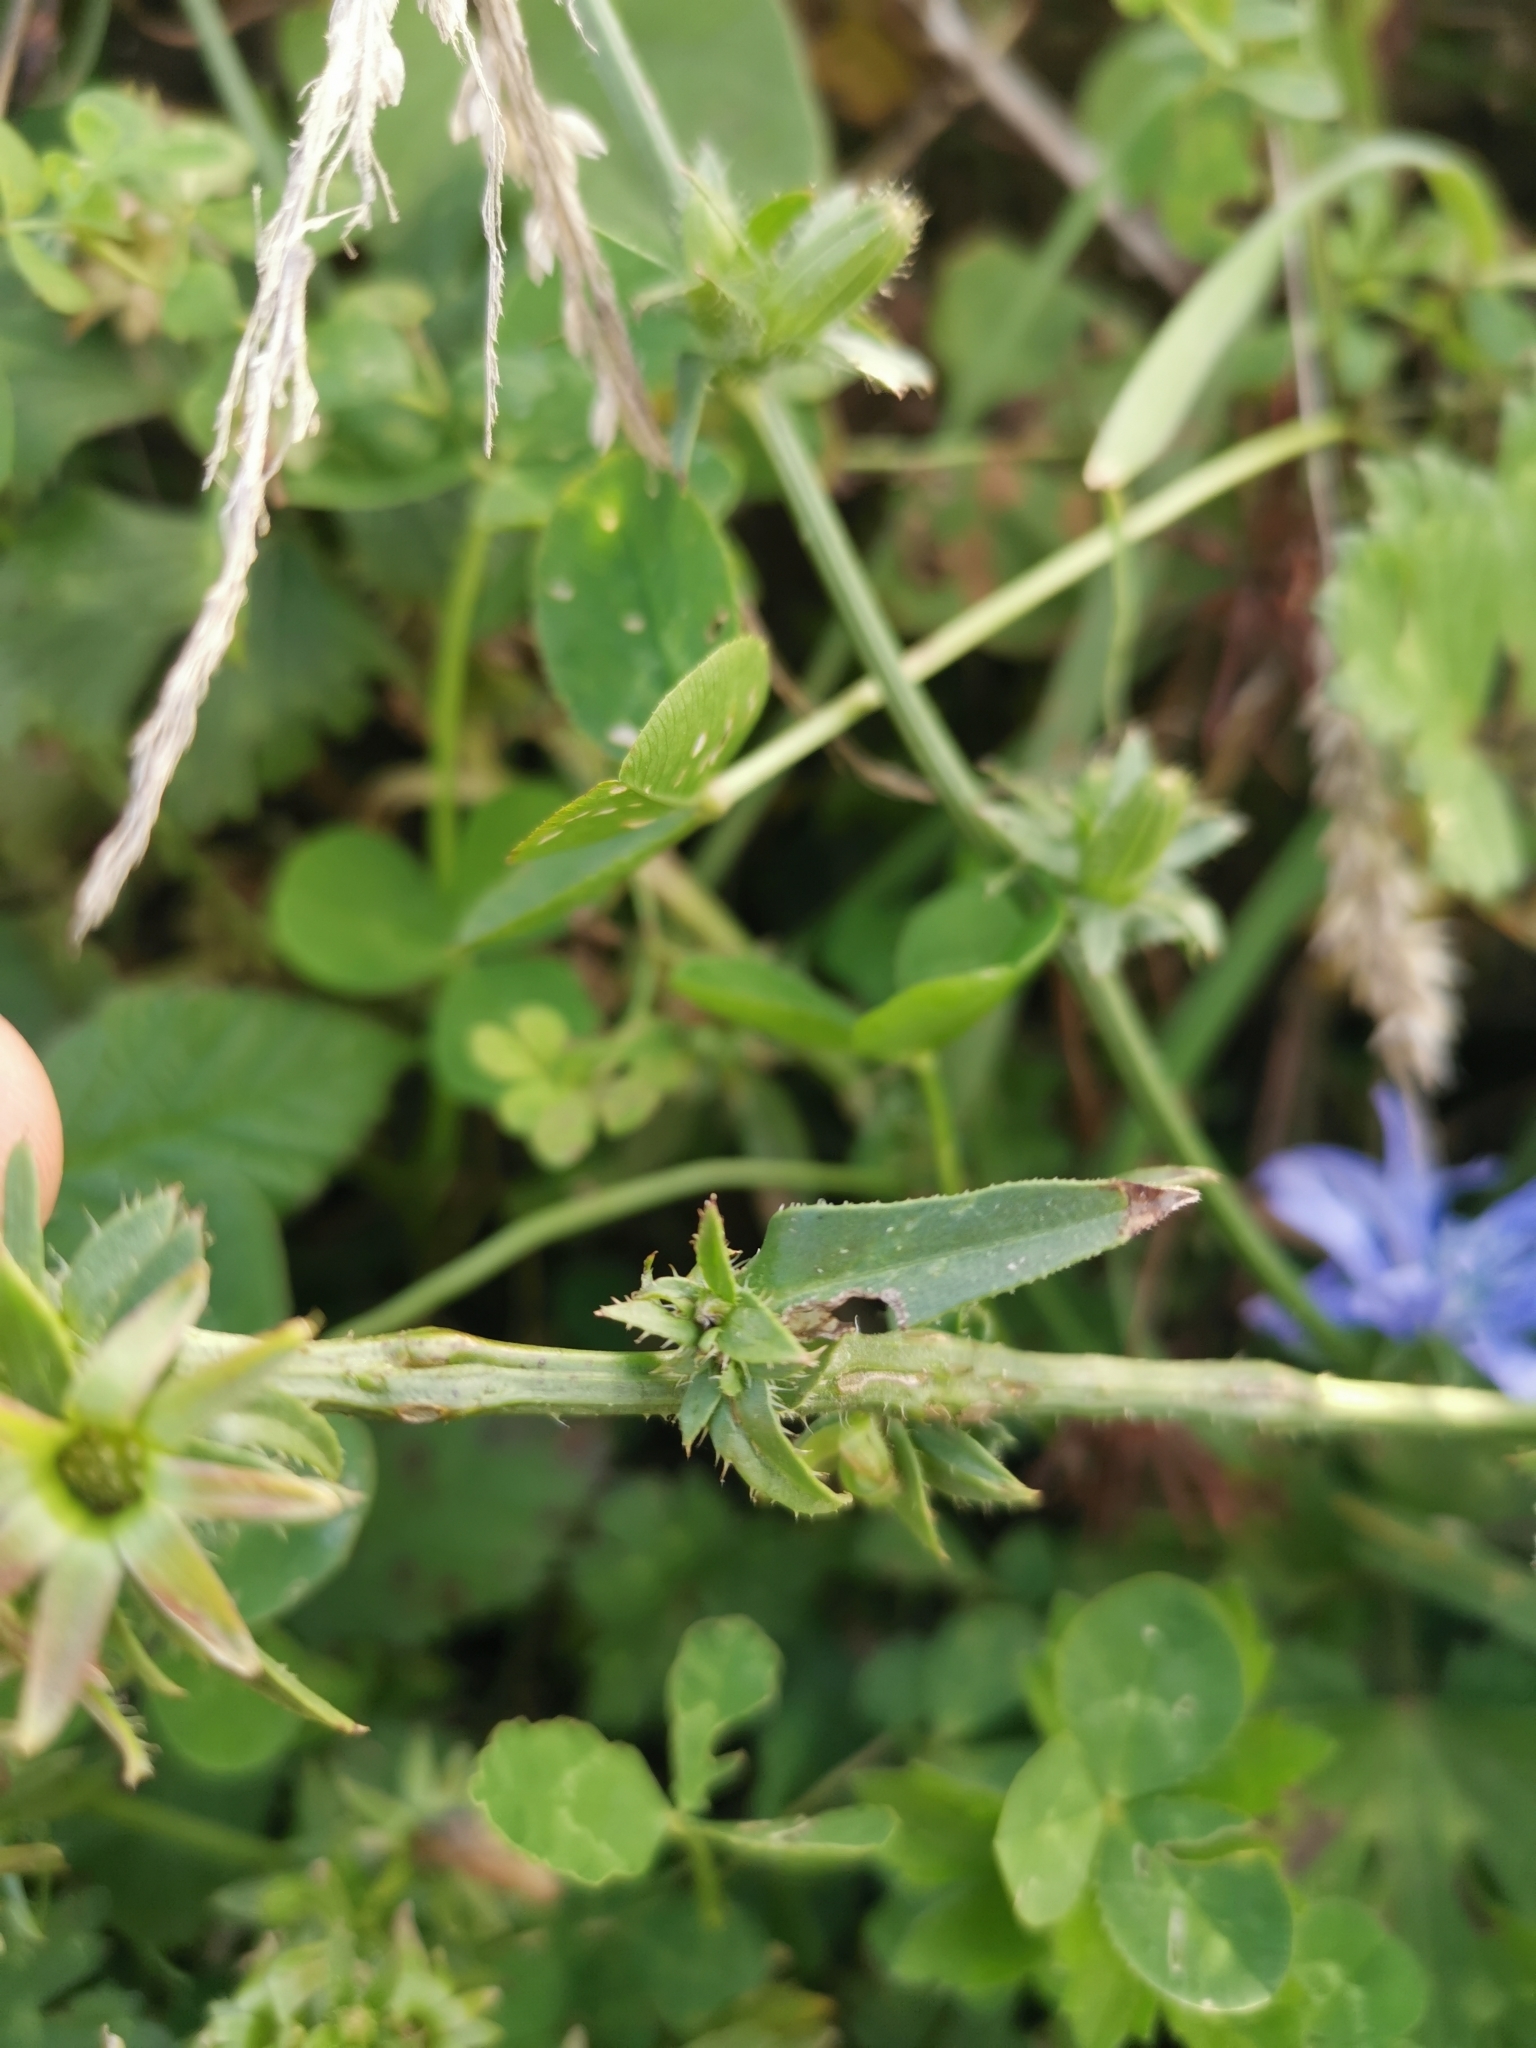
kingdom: Plantae
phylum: Tracheophyta
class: Magnoliopsida
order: Asterales
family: Asteraceae
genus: Cichorium
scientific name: Cichorium intybus
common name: Chicory
